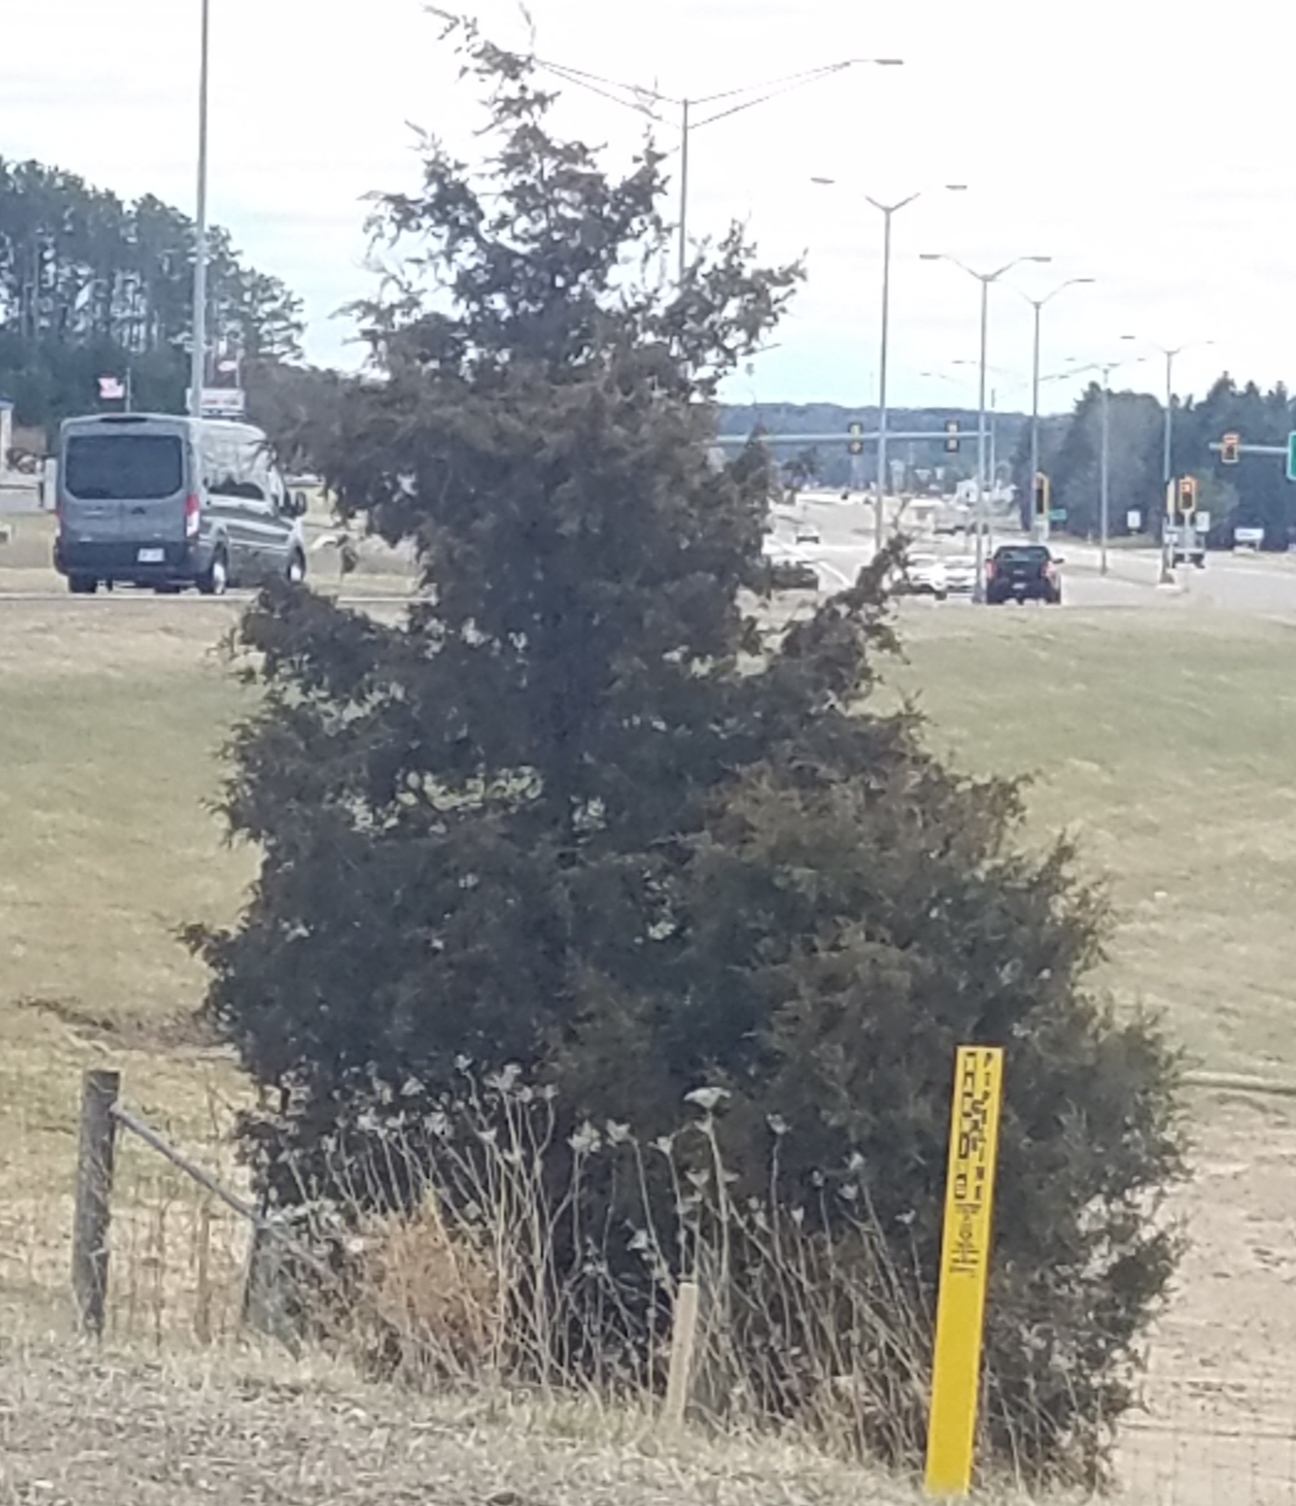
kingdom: Plantae
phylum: Tracheophyta
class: Pinopsida
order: Pinales
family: Cupressaceae
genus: Juniperus
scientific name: Juniperus virginiana
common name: Red juniper
